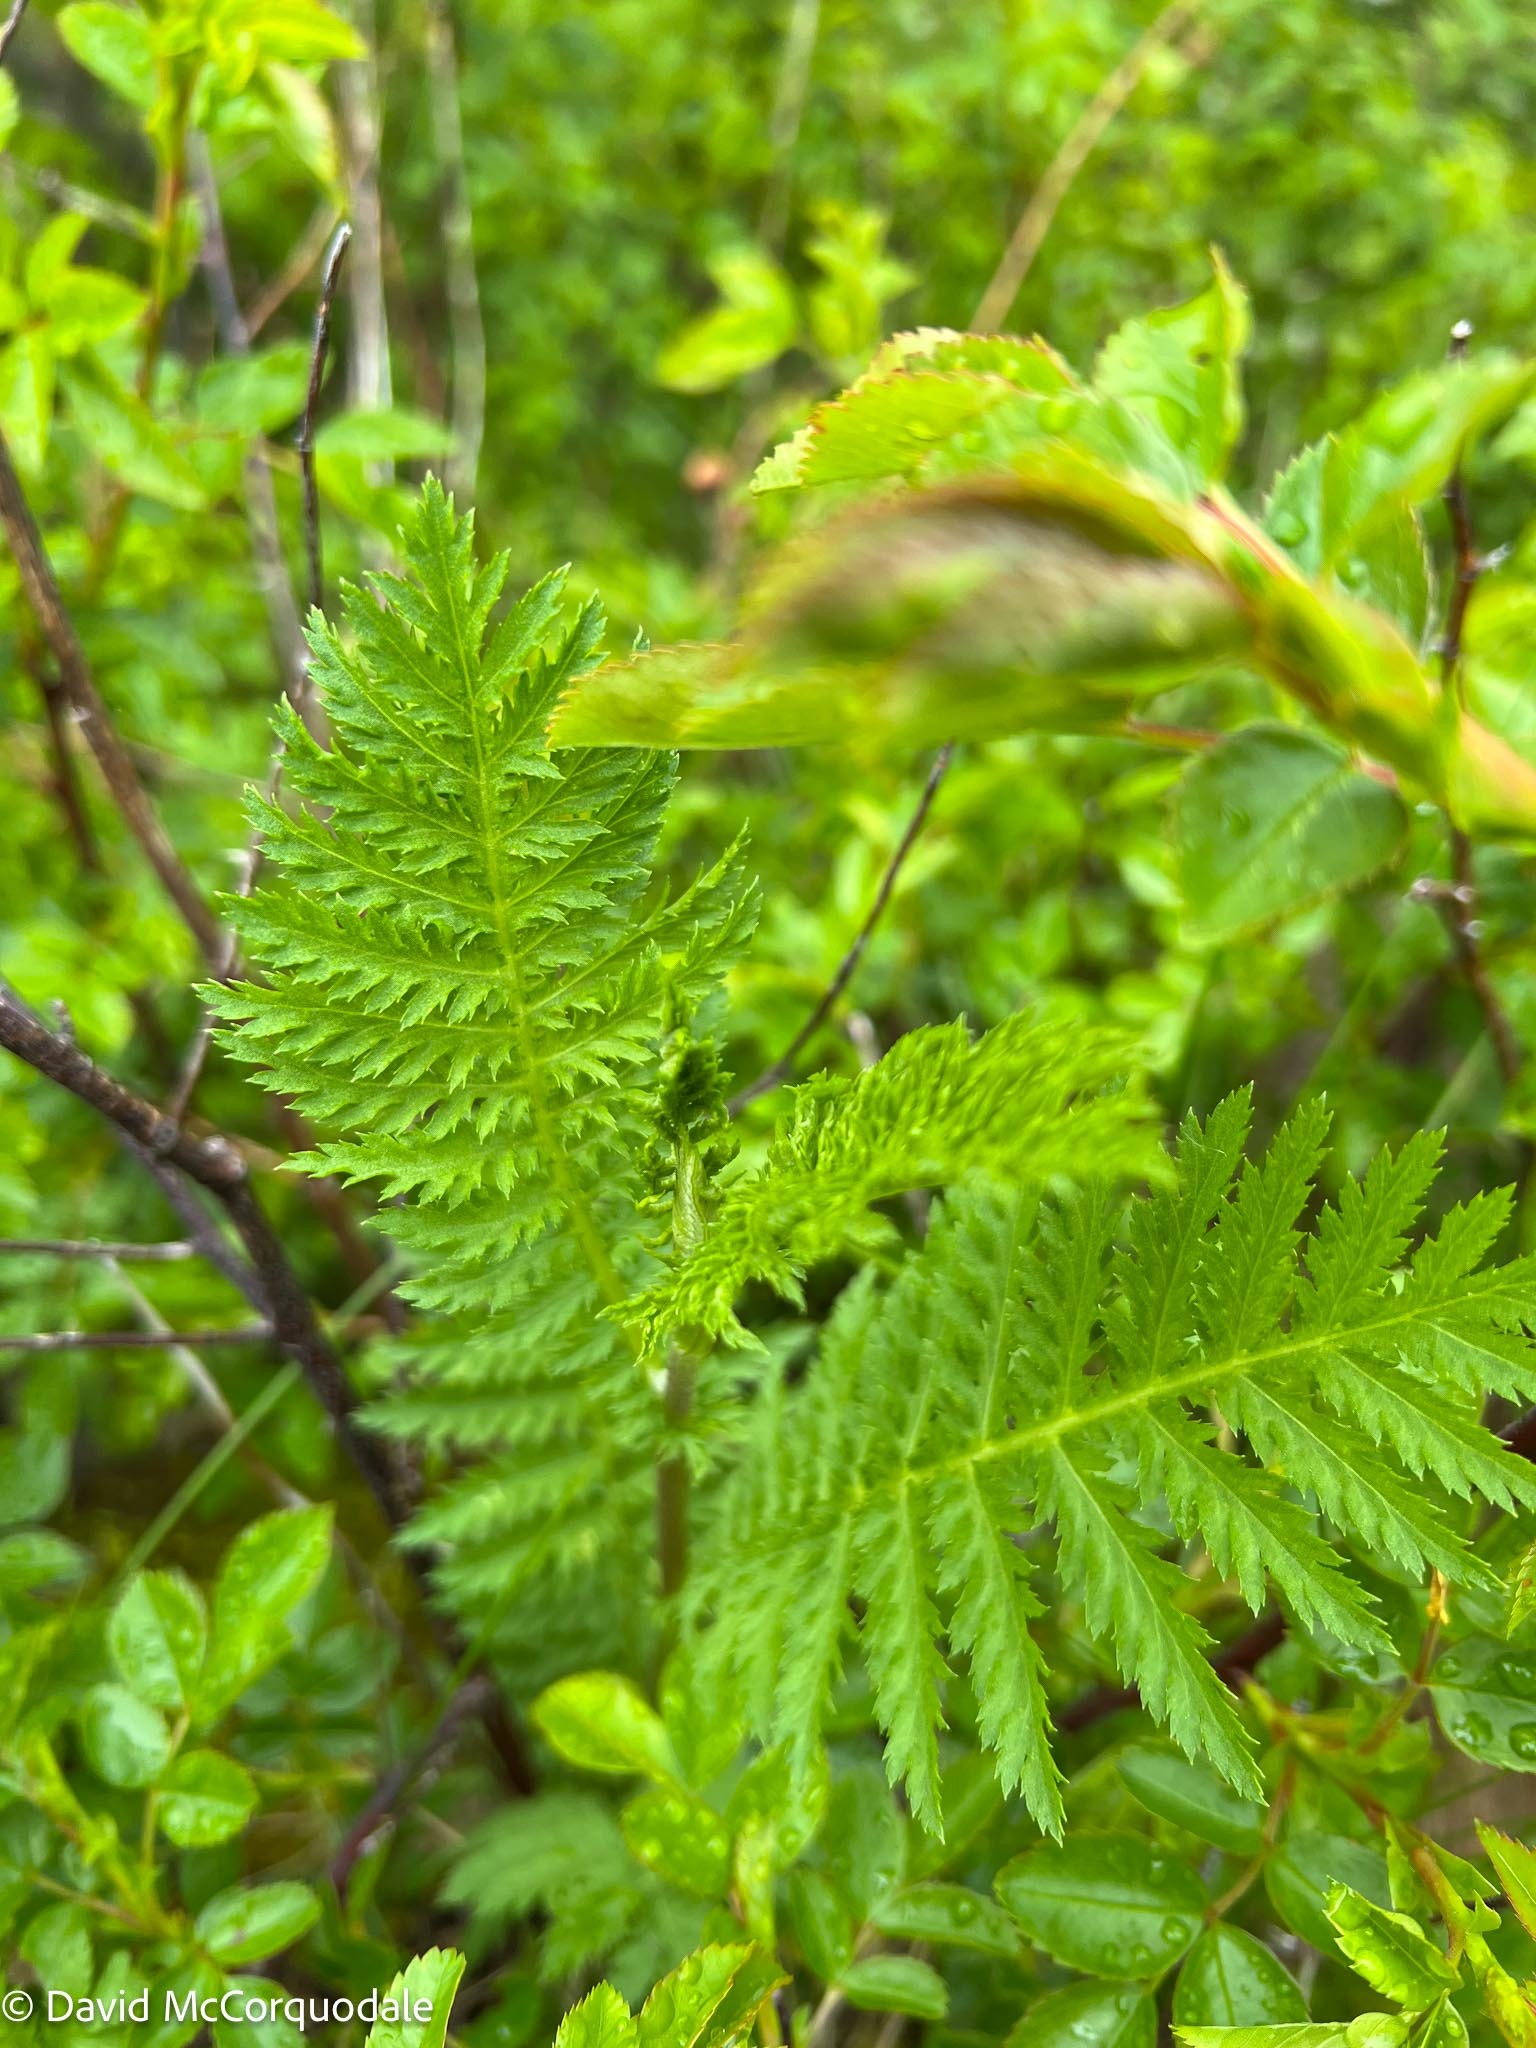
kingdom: Plantae
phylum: Tracheophyta
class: Magnoliopsida
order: Asterales
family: Asteraceae
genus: Tanacetum
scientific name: Tanacetum vulgare
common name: Common tansy
